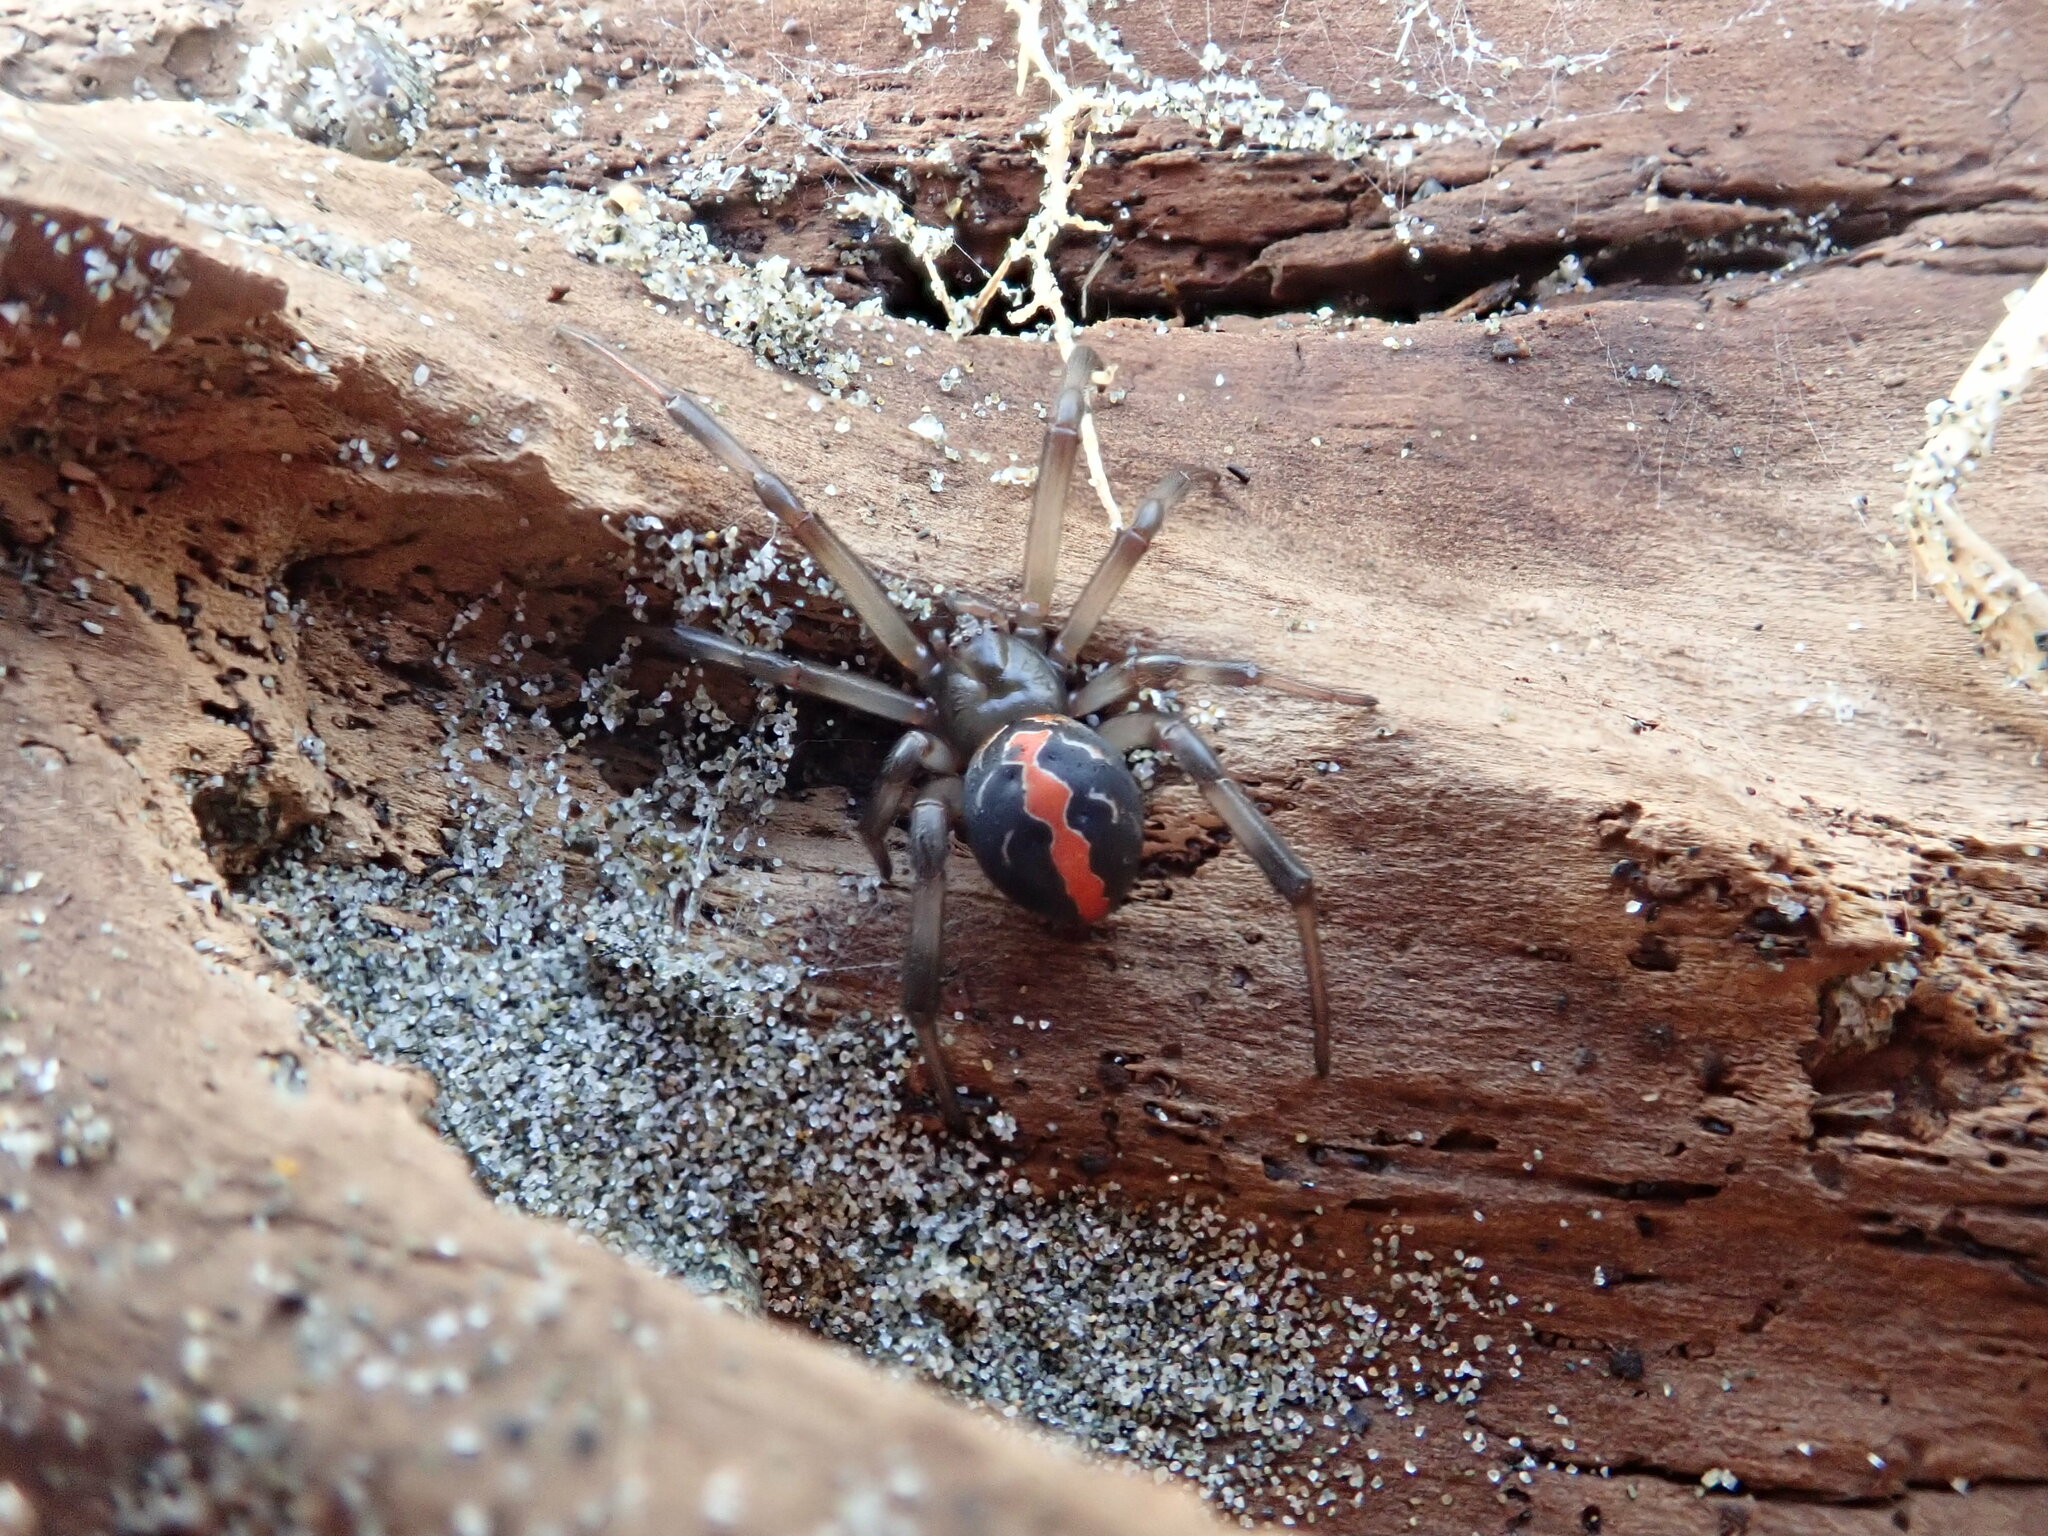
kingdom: Animalia
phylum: Arthropoda
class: Arachnida
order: Araneae
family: Theridiidae
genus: Latrodectus
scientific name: Latrodectus katipo
